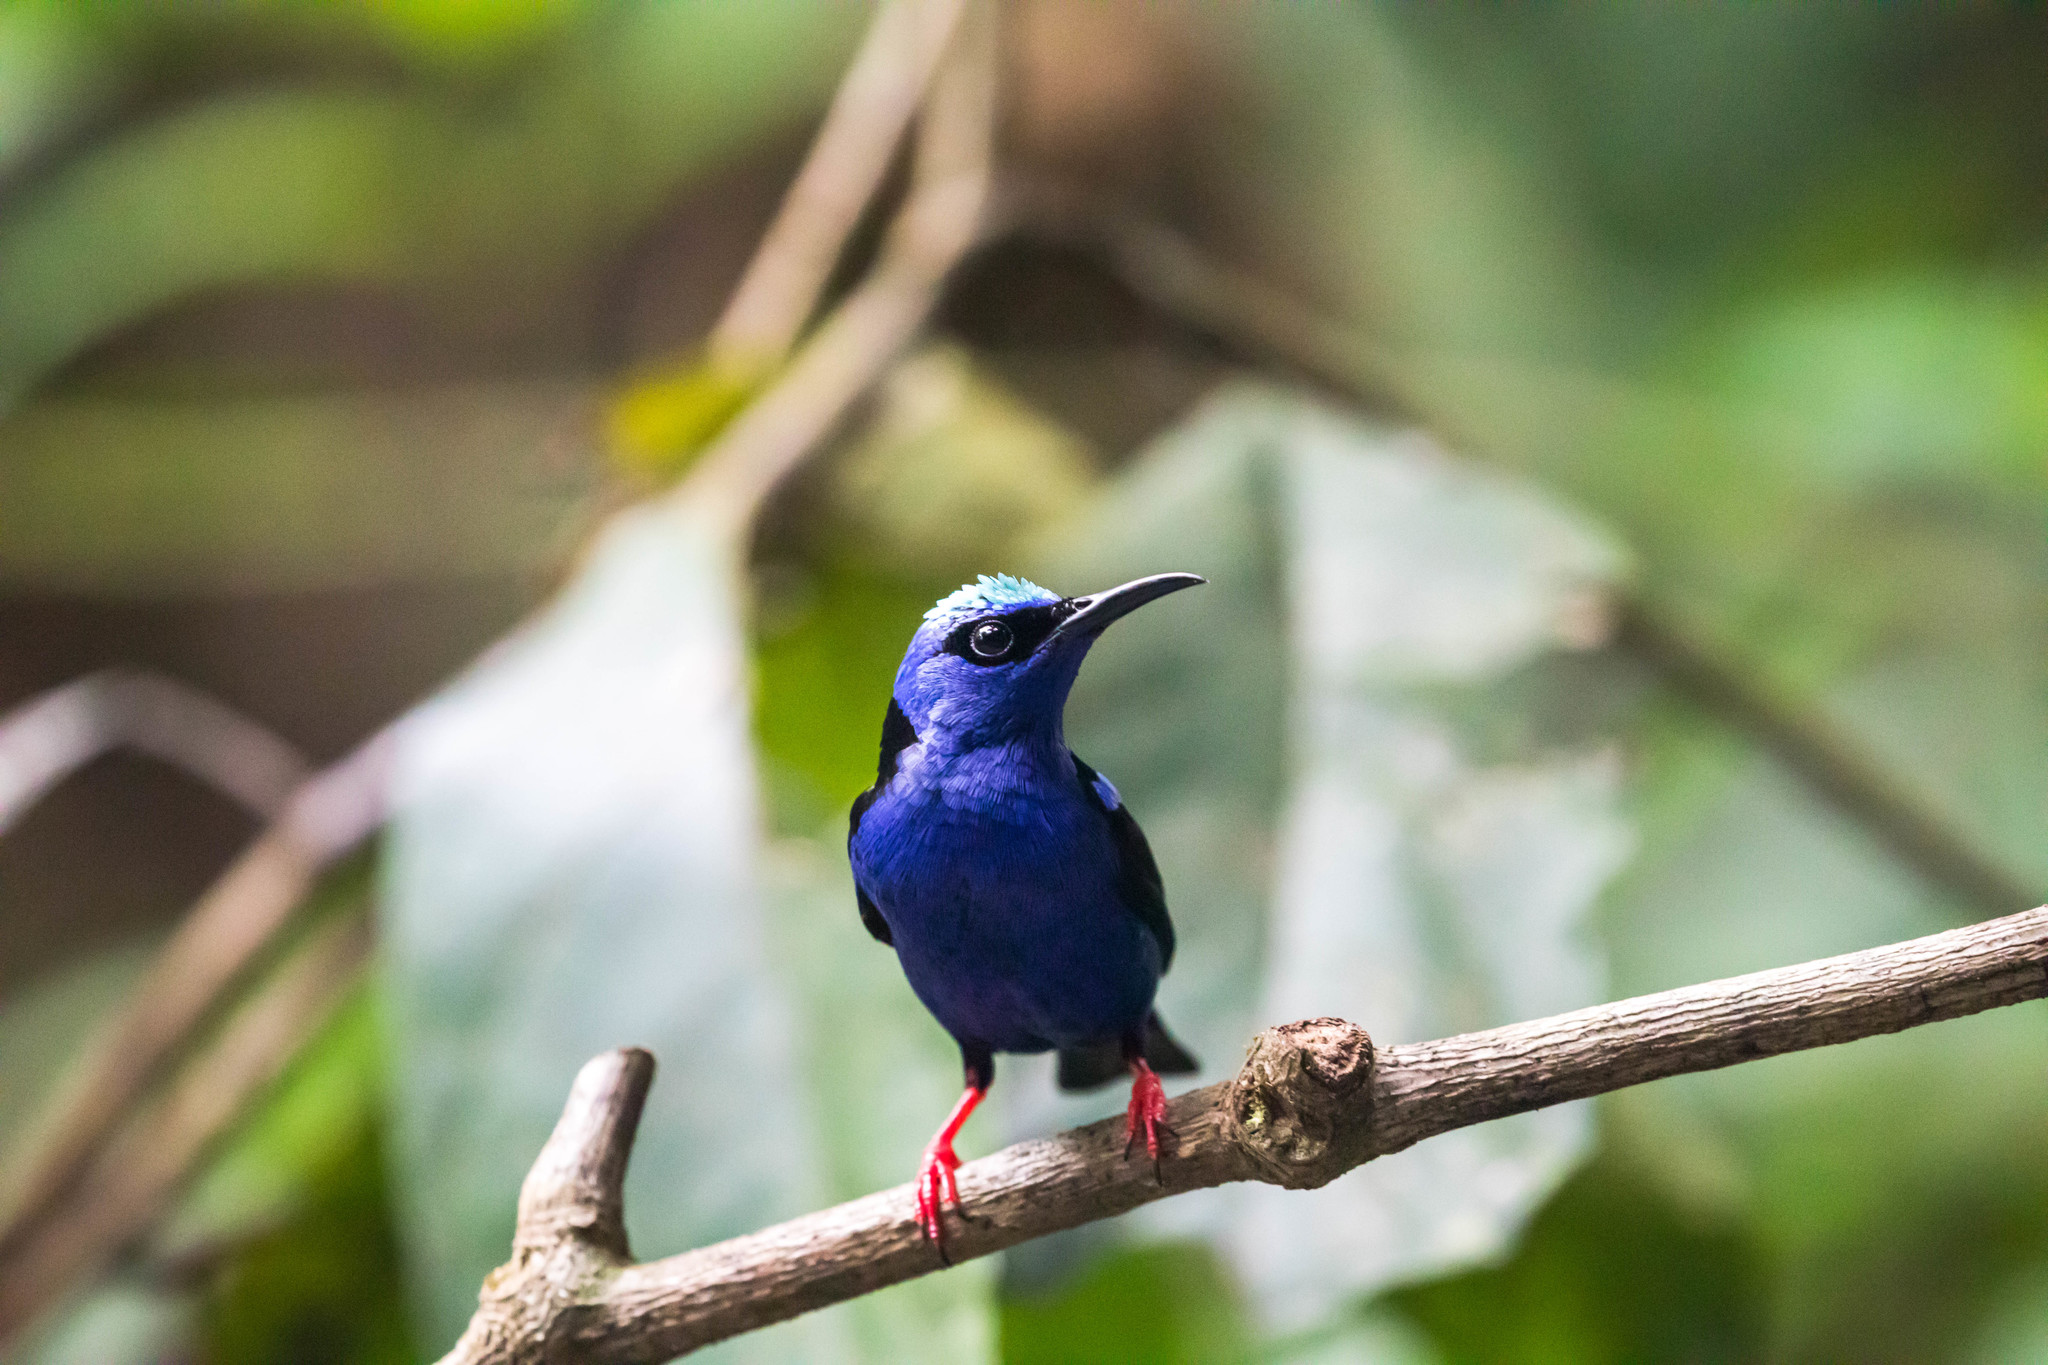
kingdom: Animalia
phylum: Chordata
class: Aves
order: Passeriformes
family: Thraupidae
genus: Cyanerpes
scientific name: Cyanerpes cyaneus
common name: Red-legged honeycreeper
